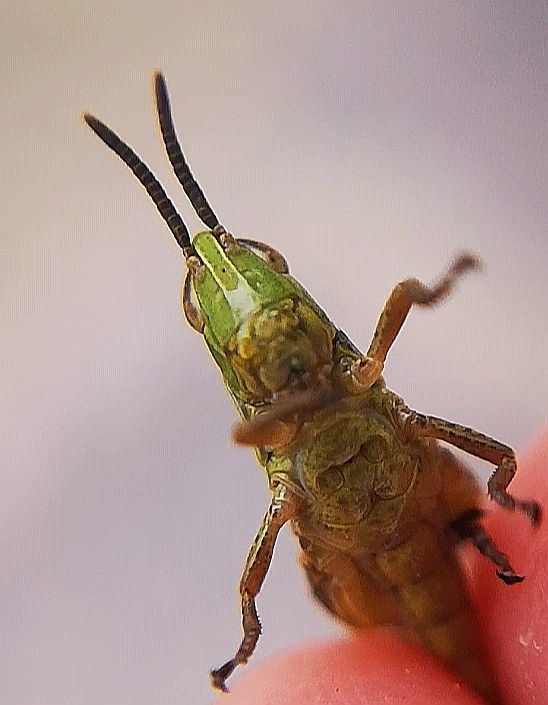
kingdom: Animalia
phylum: Arthropoda
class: Insecta
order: Orthoptera
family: Acrididae
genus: Pseudochorthippus
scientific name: Pseudochorthippus parallelus
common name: Meadow grasshopper
